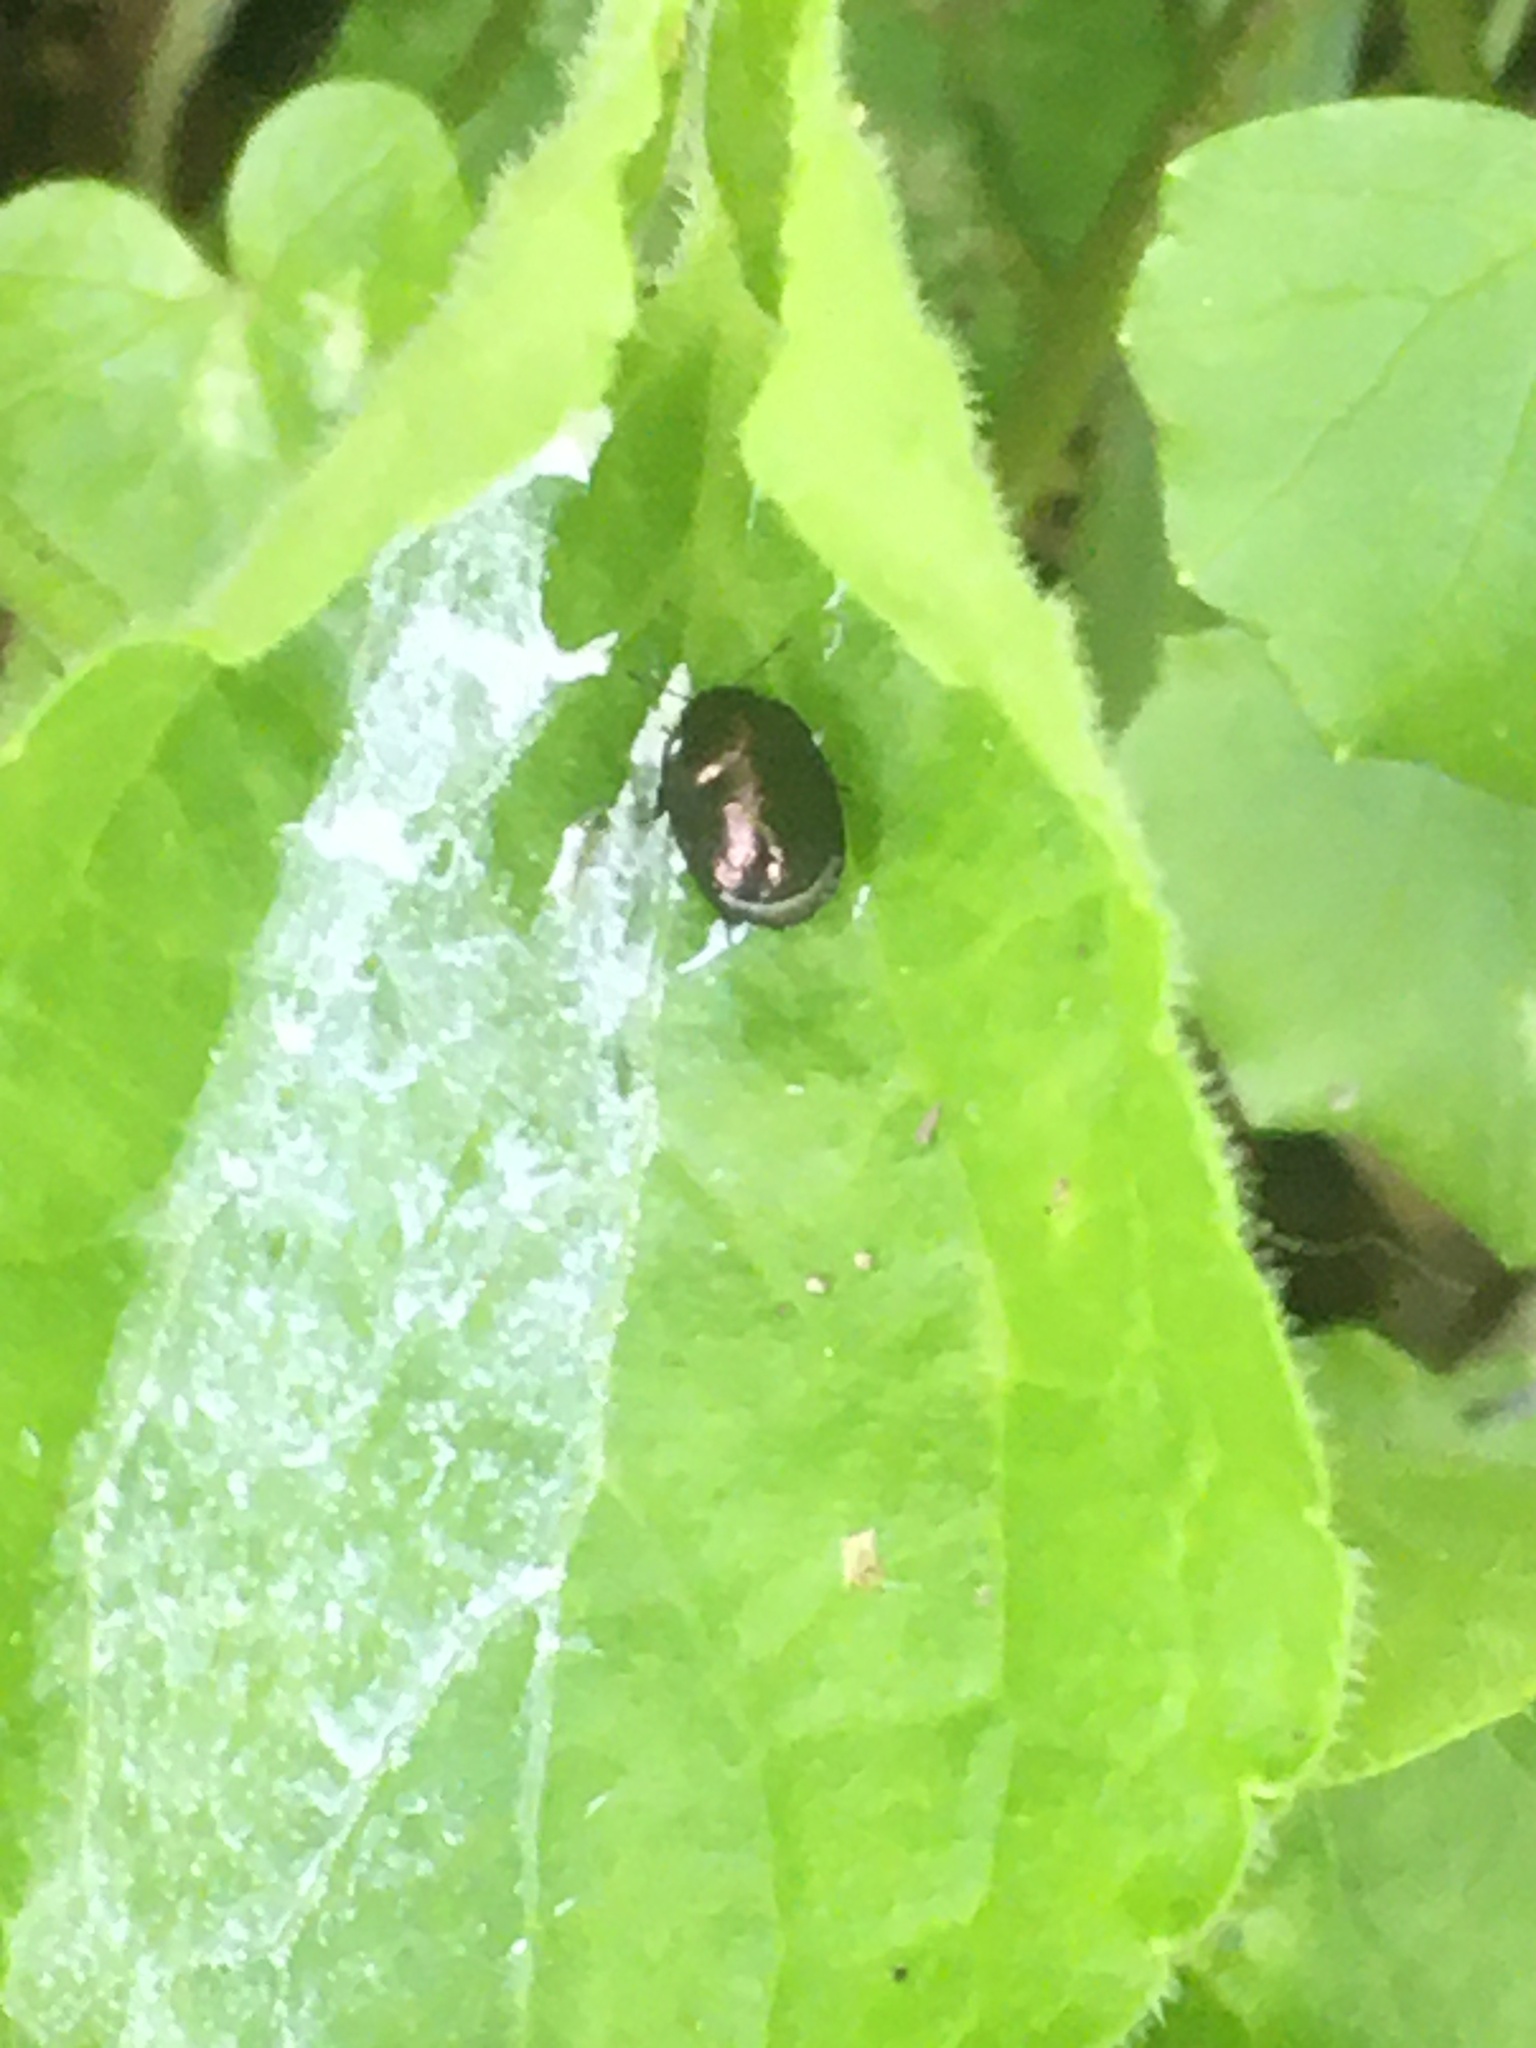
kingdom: Animalia
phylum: Arthropoda
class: Insecta
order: Hemiptera
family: Thyreocoridae
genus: Thyreocoris
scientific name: Thyreocoris scarabaeoides
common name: Negro bug
